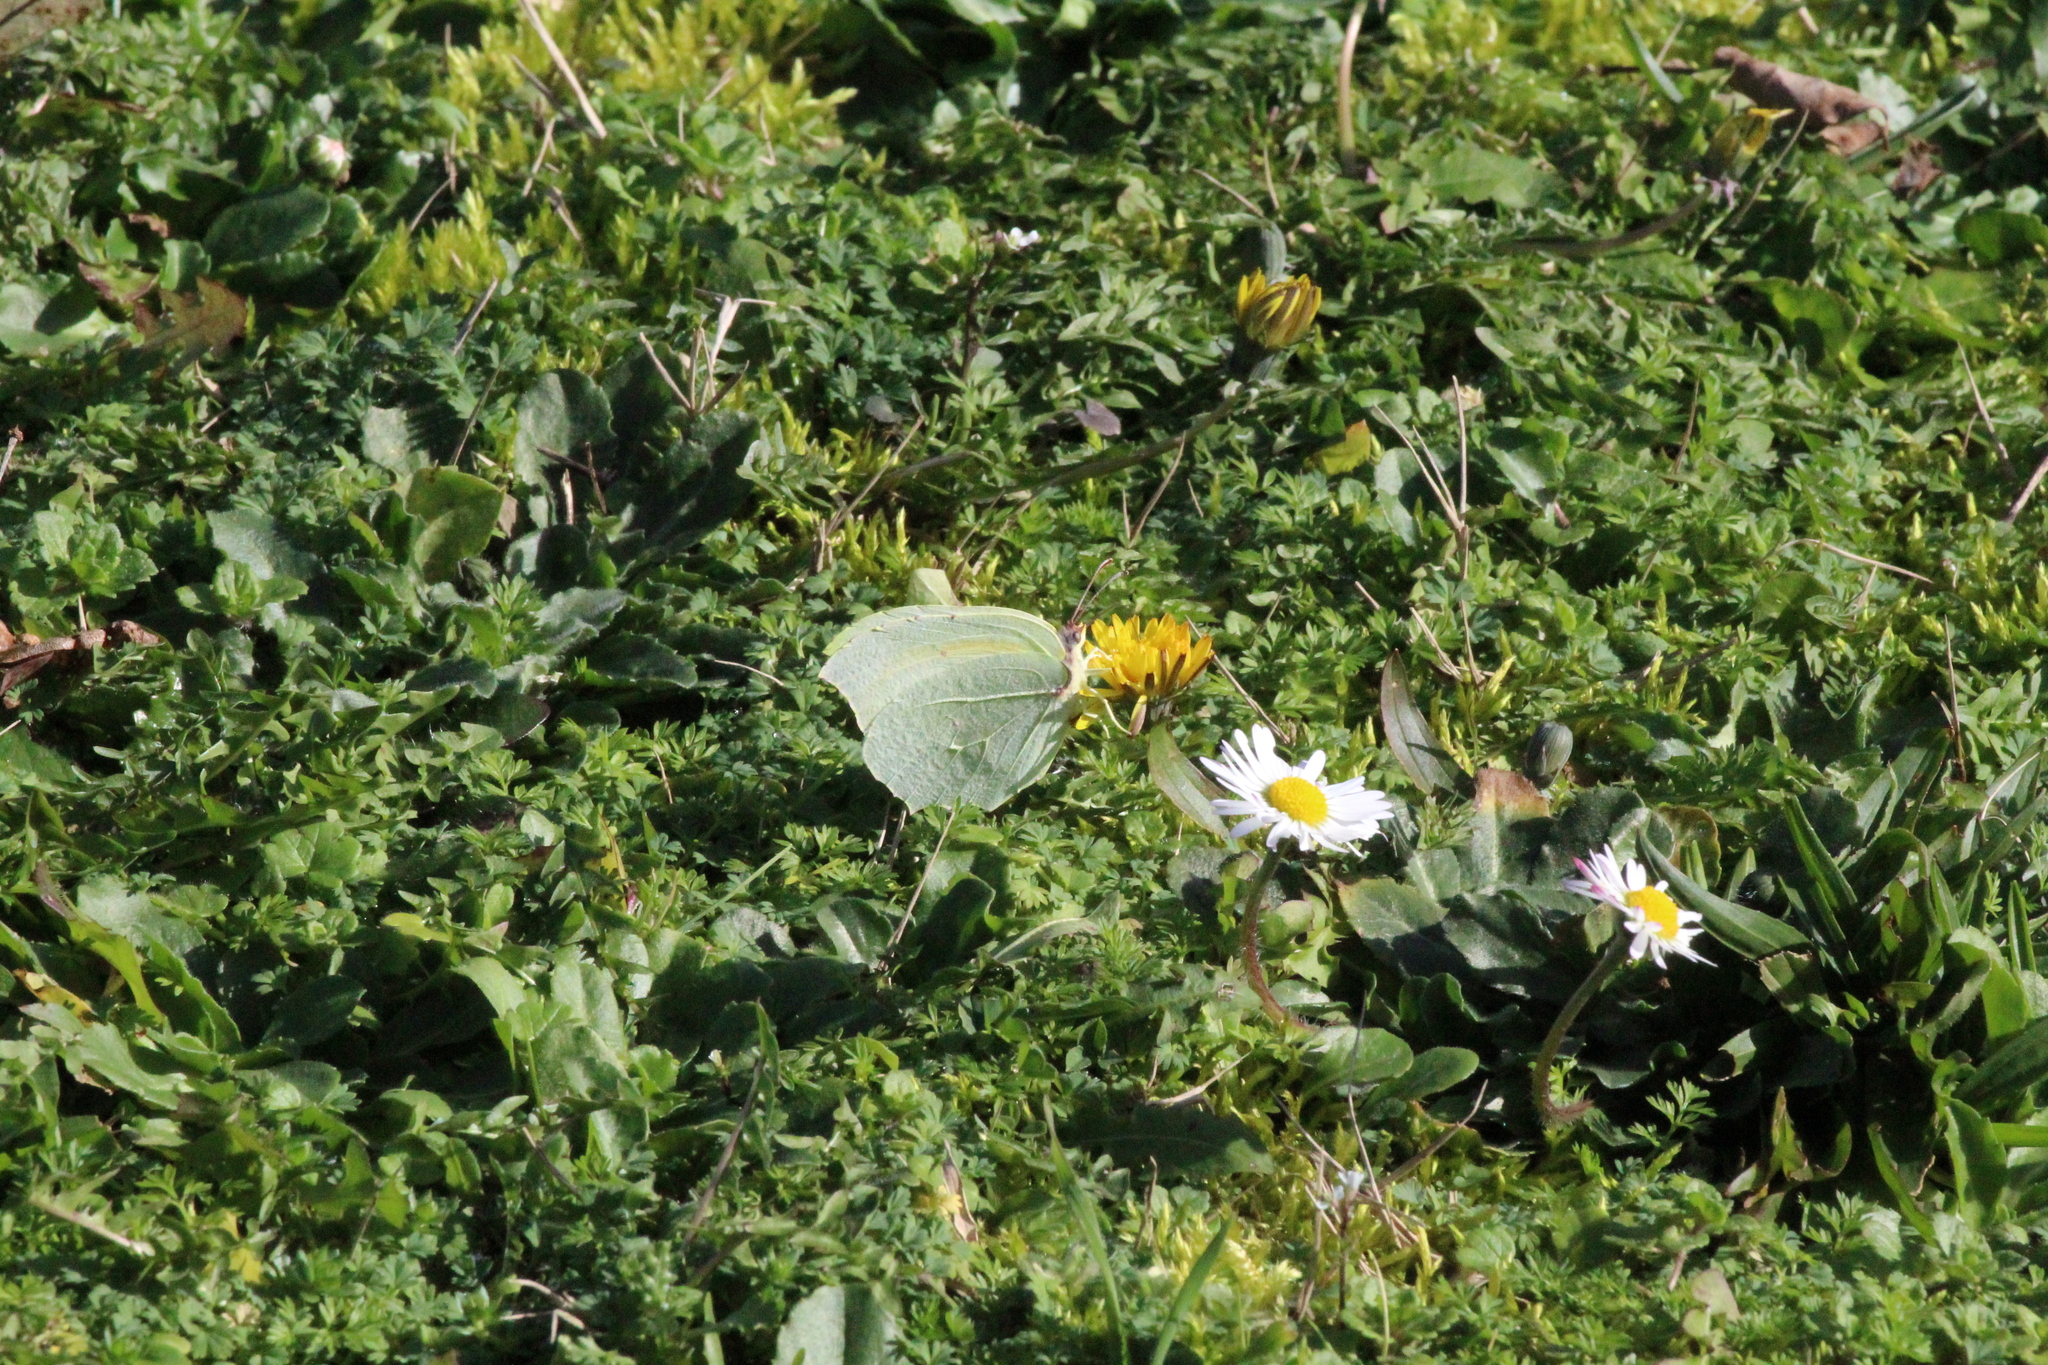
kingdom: Animalia
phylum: Arthropoda
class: Insecta
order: Lepidoptera
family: Pieridae
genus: Gonepteryx
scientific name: Gonepteryx cleopatra
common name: Cleopatra
